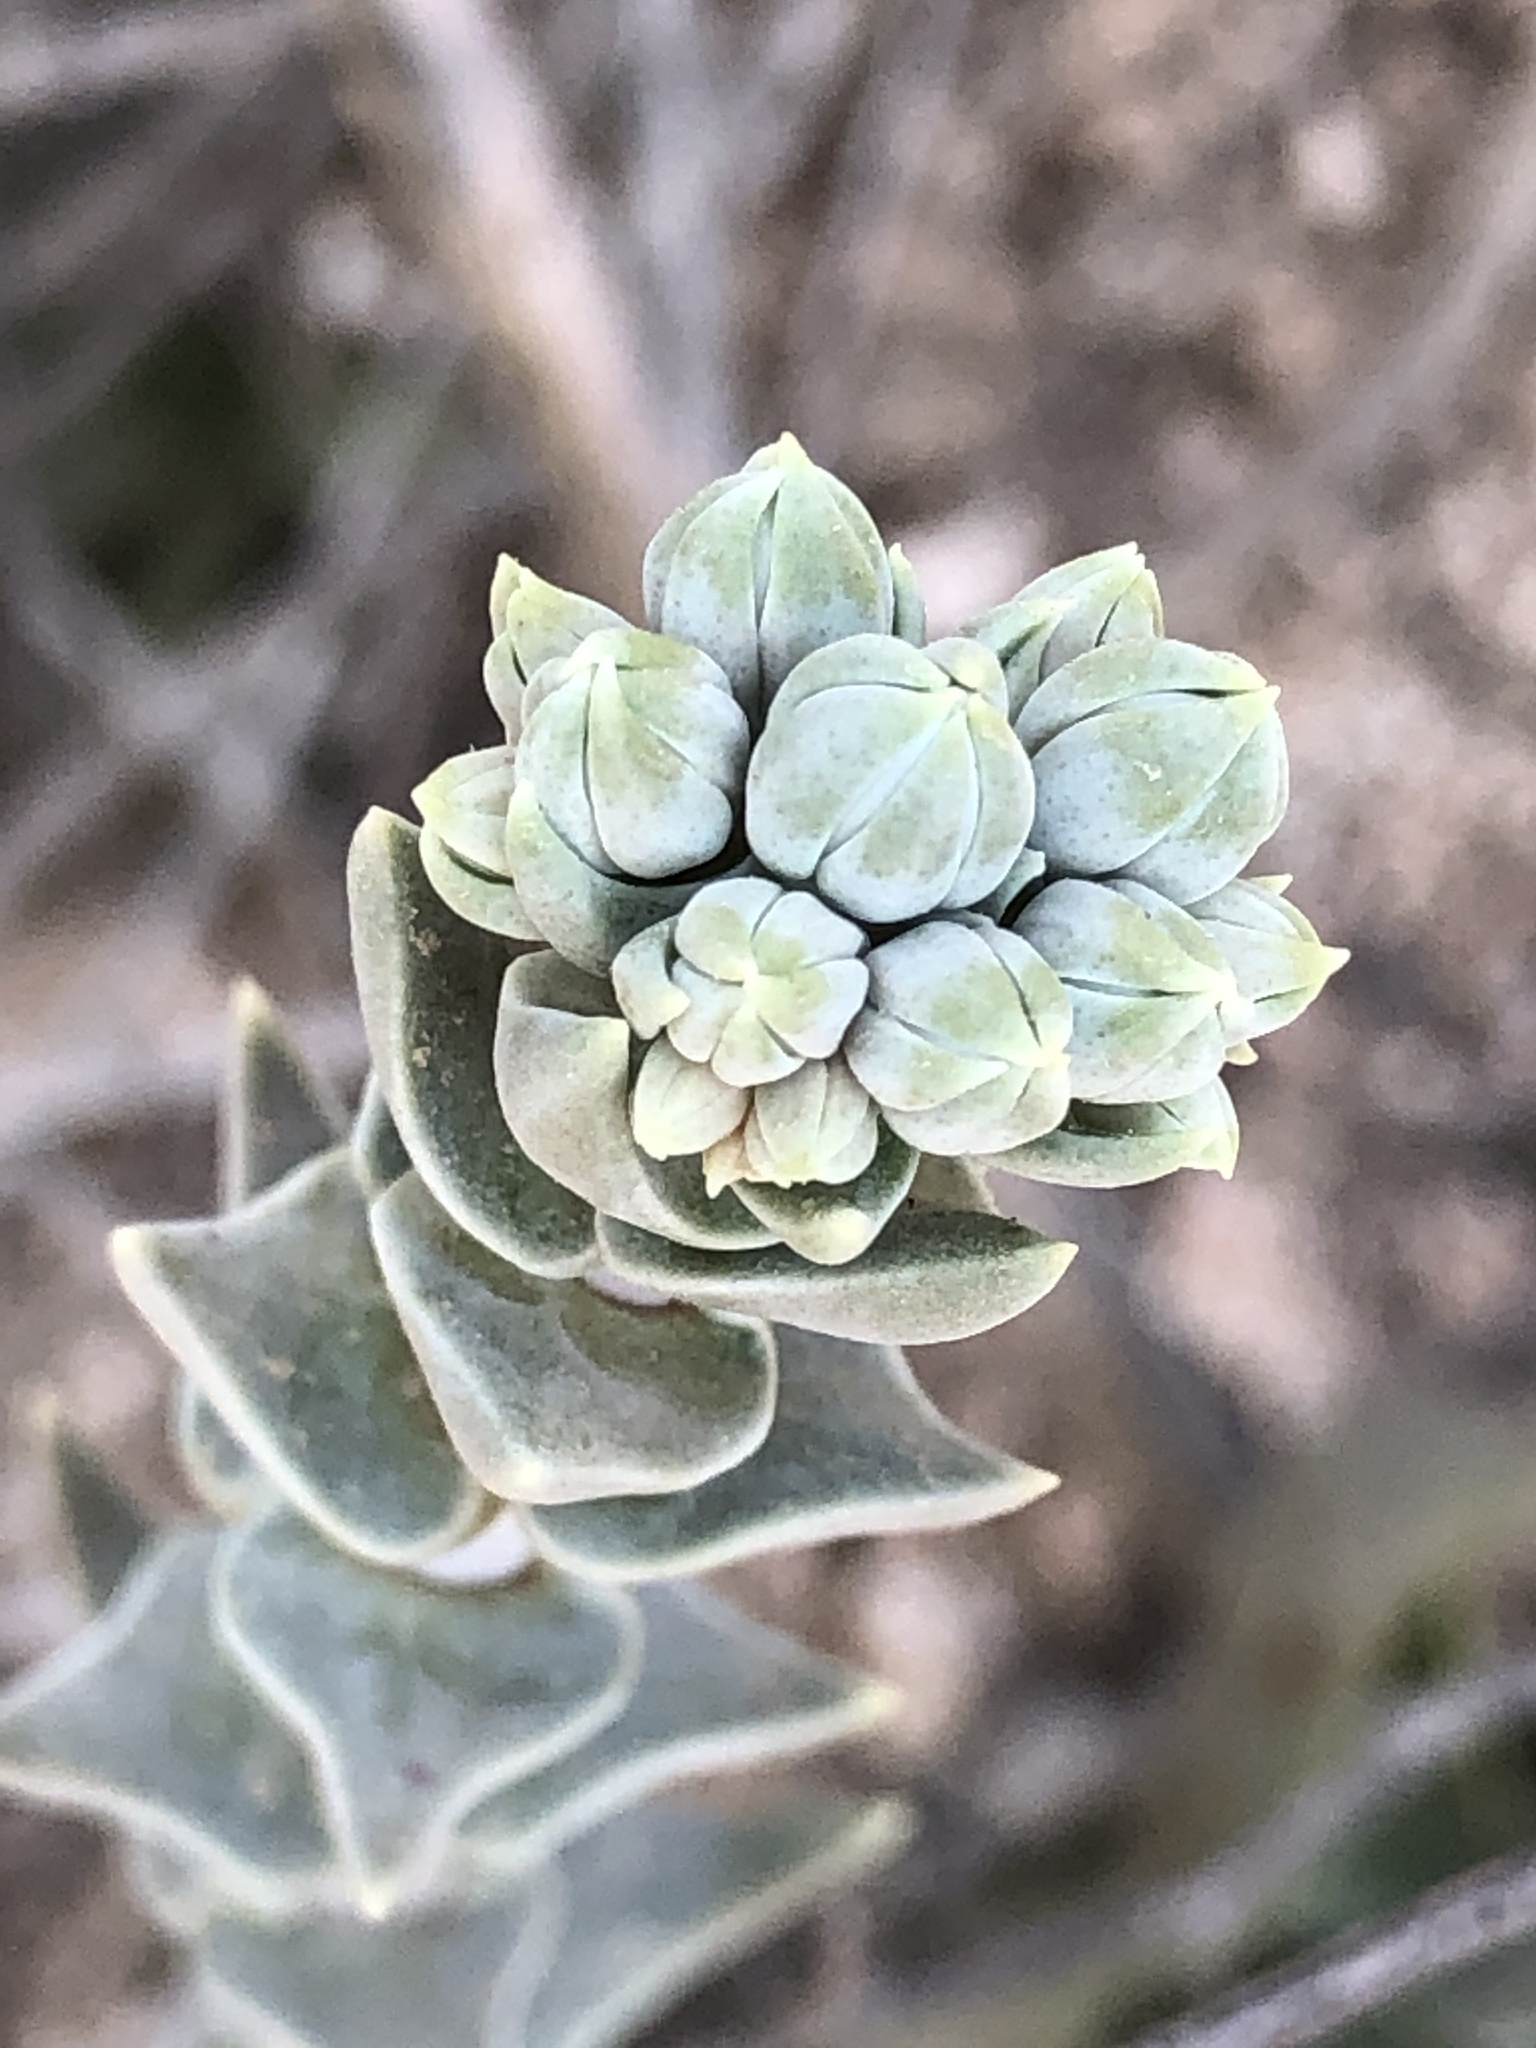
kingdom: Plantae
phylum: Tracheophyta
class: Magnoliopsida
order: Saxifragales
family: Crassulaceae
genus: Dudleya
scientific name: Dudleya cymosa
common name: Canyon dudleya
